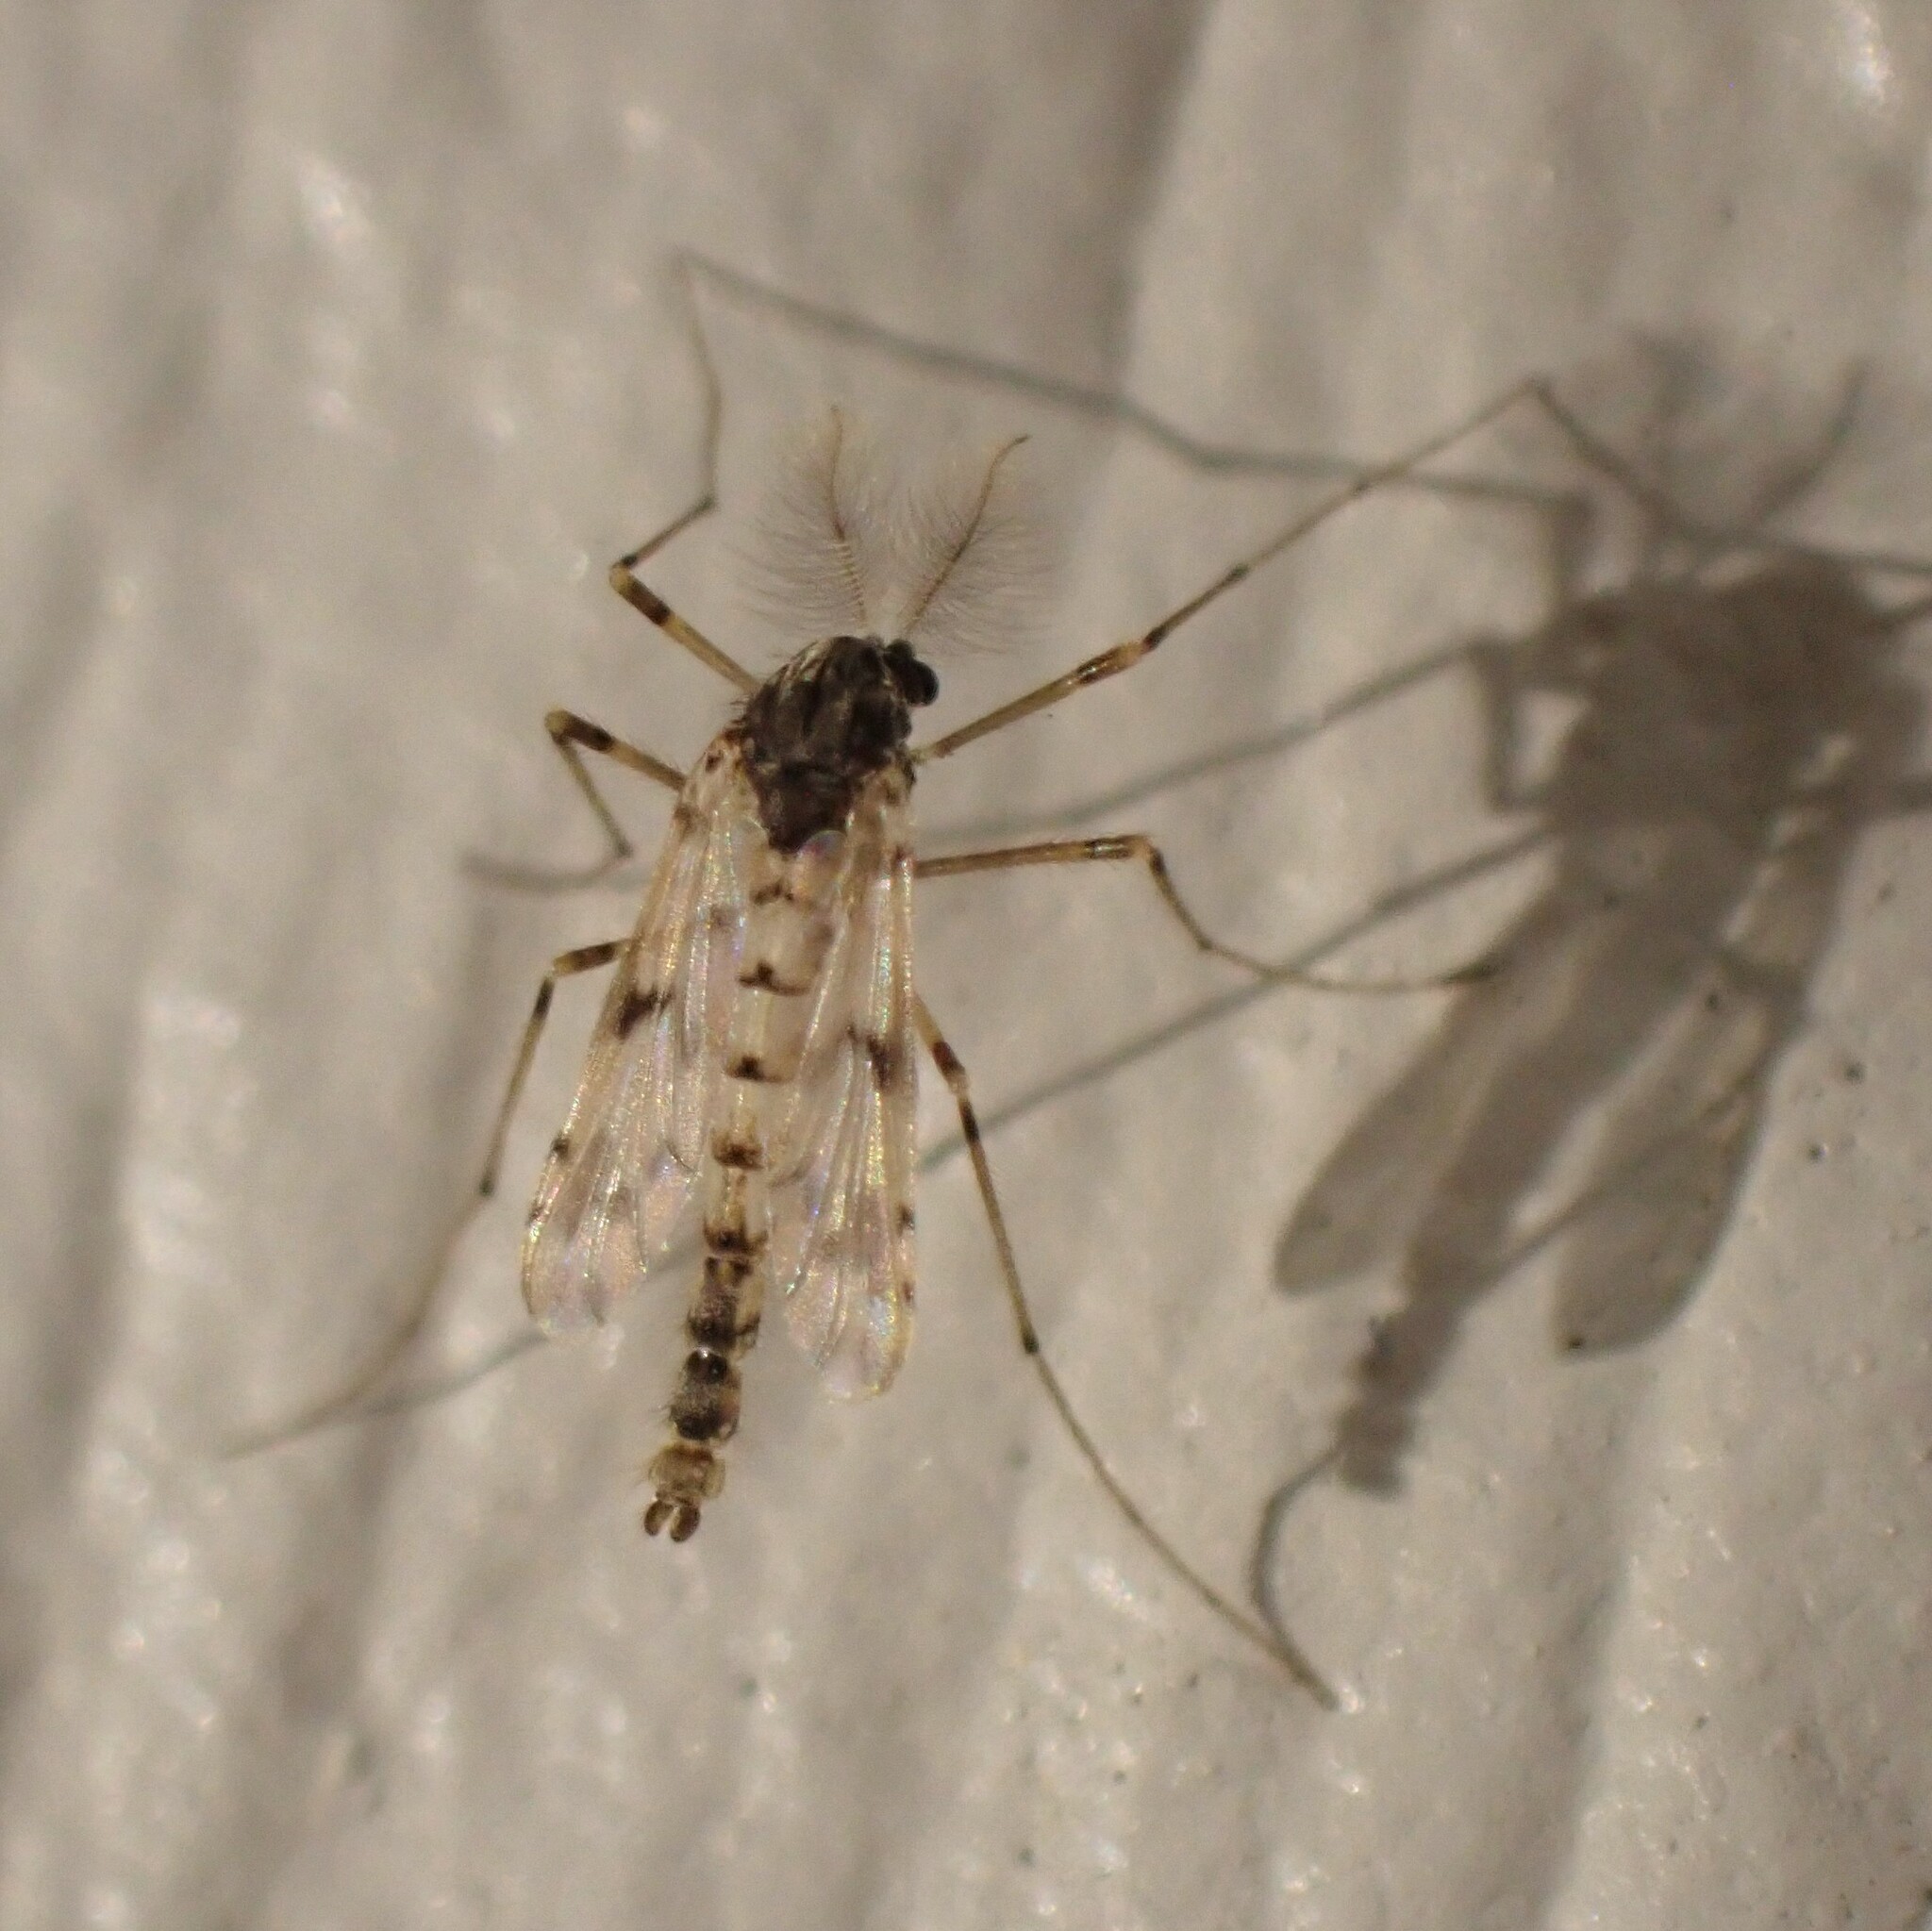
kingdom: Animalia
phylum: Arthropoda
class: Insecta
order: Diptera
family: Chironomidae
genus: Alotanypus
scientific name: Alotanypus venusta
